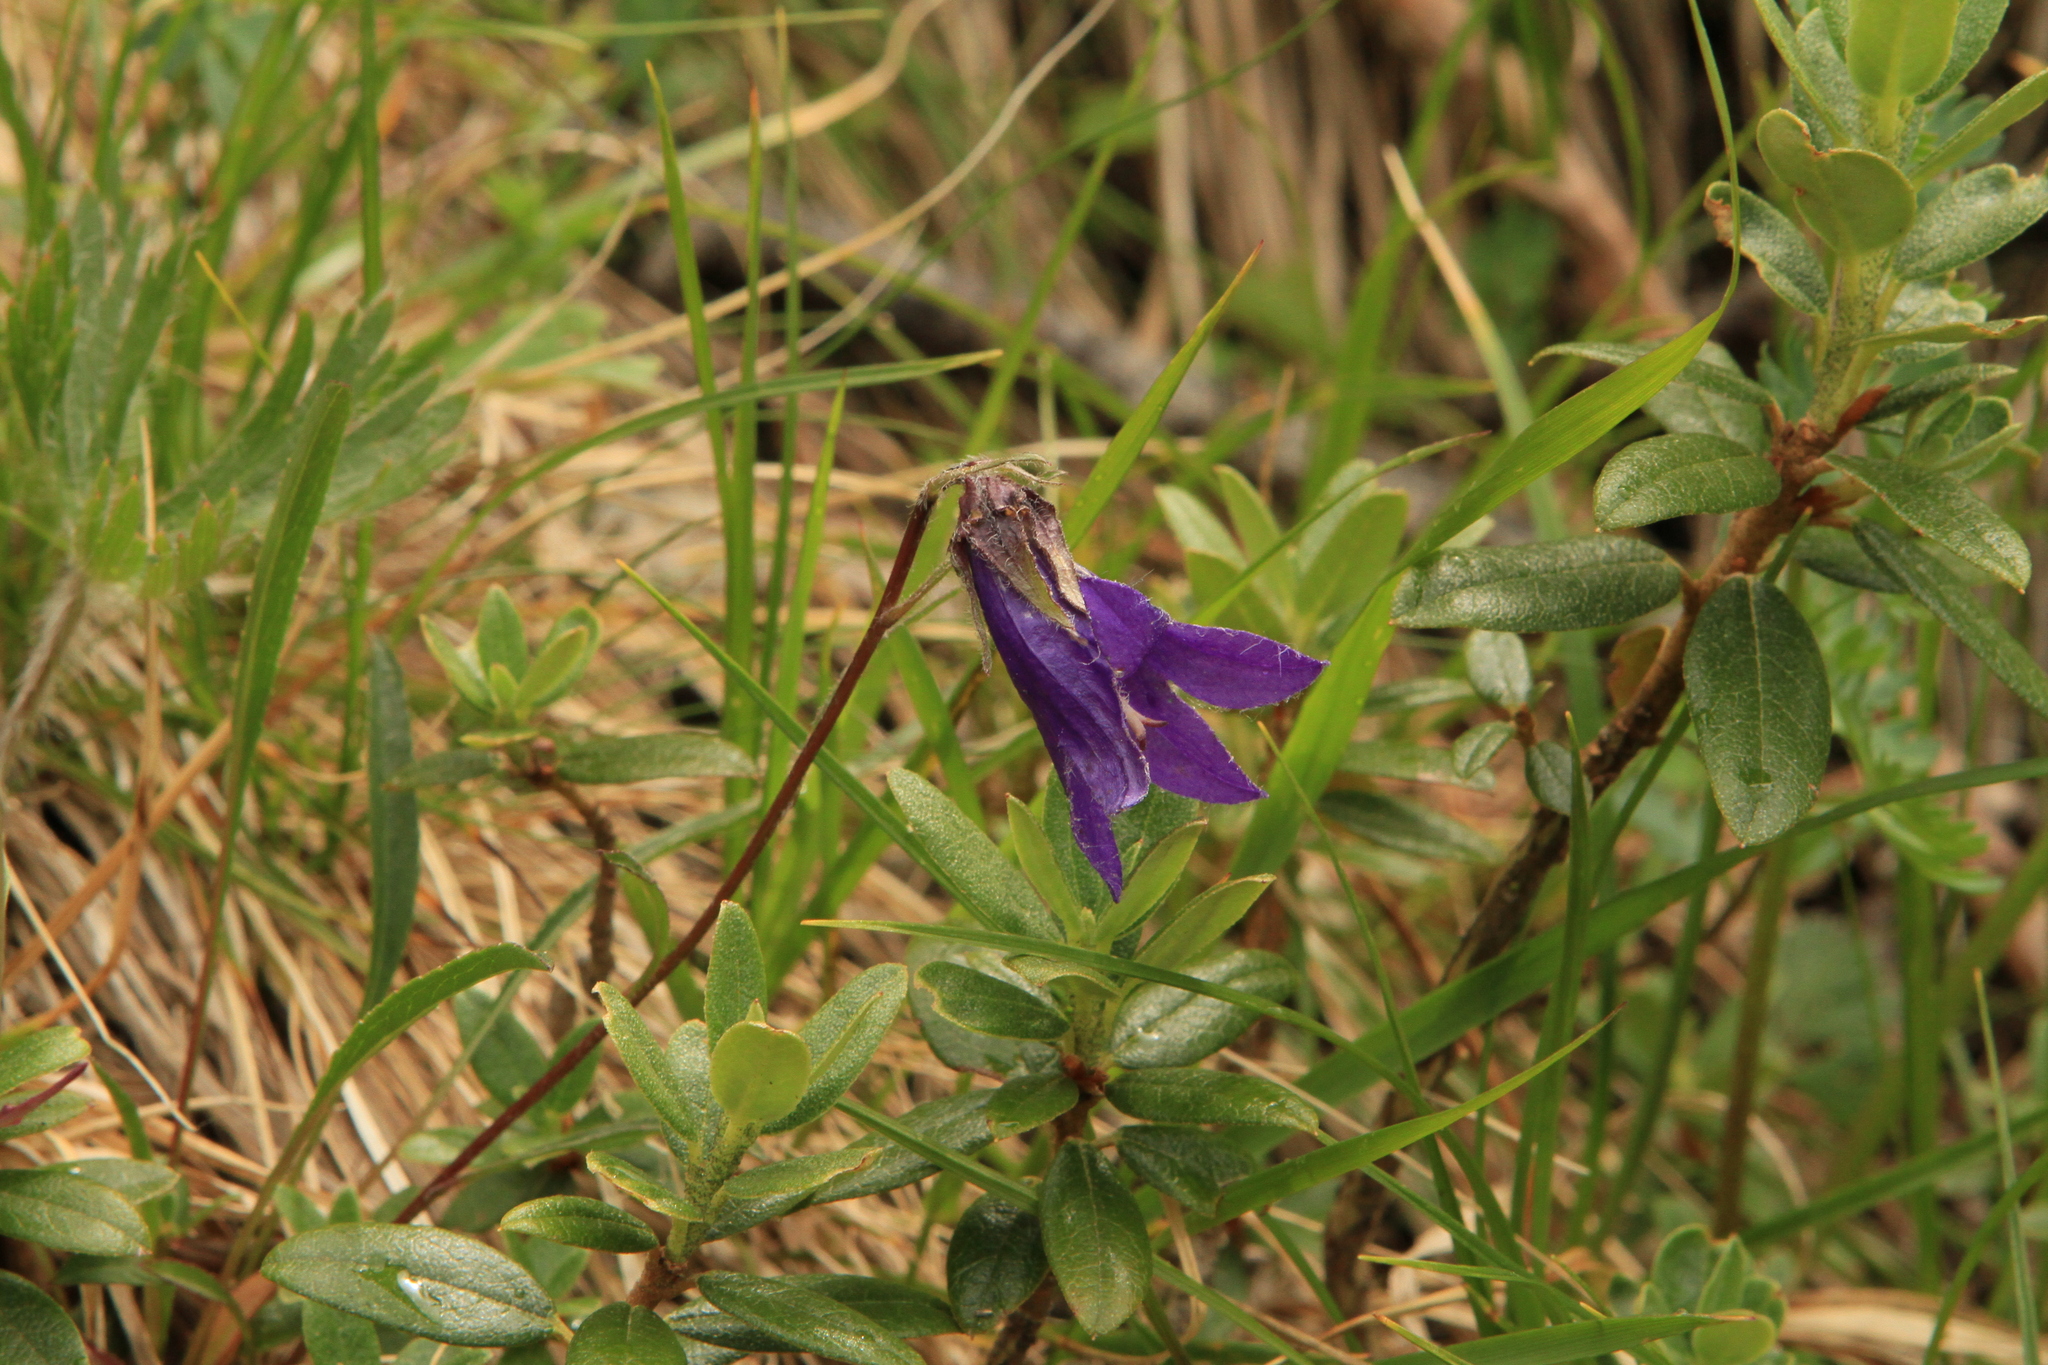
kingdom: Plantae
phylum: Tracheophyta
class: Magnoliopsida
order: Asterales
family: Campanulaceae
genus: Campanula
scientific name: Campanula dasyantha
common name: Hairyflower bellflower
